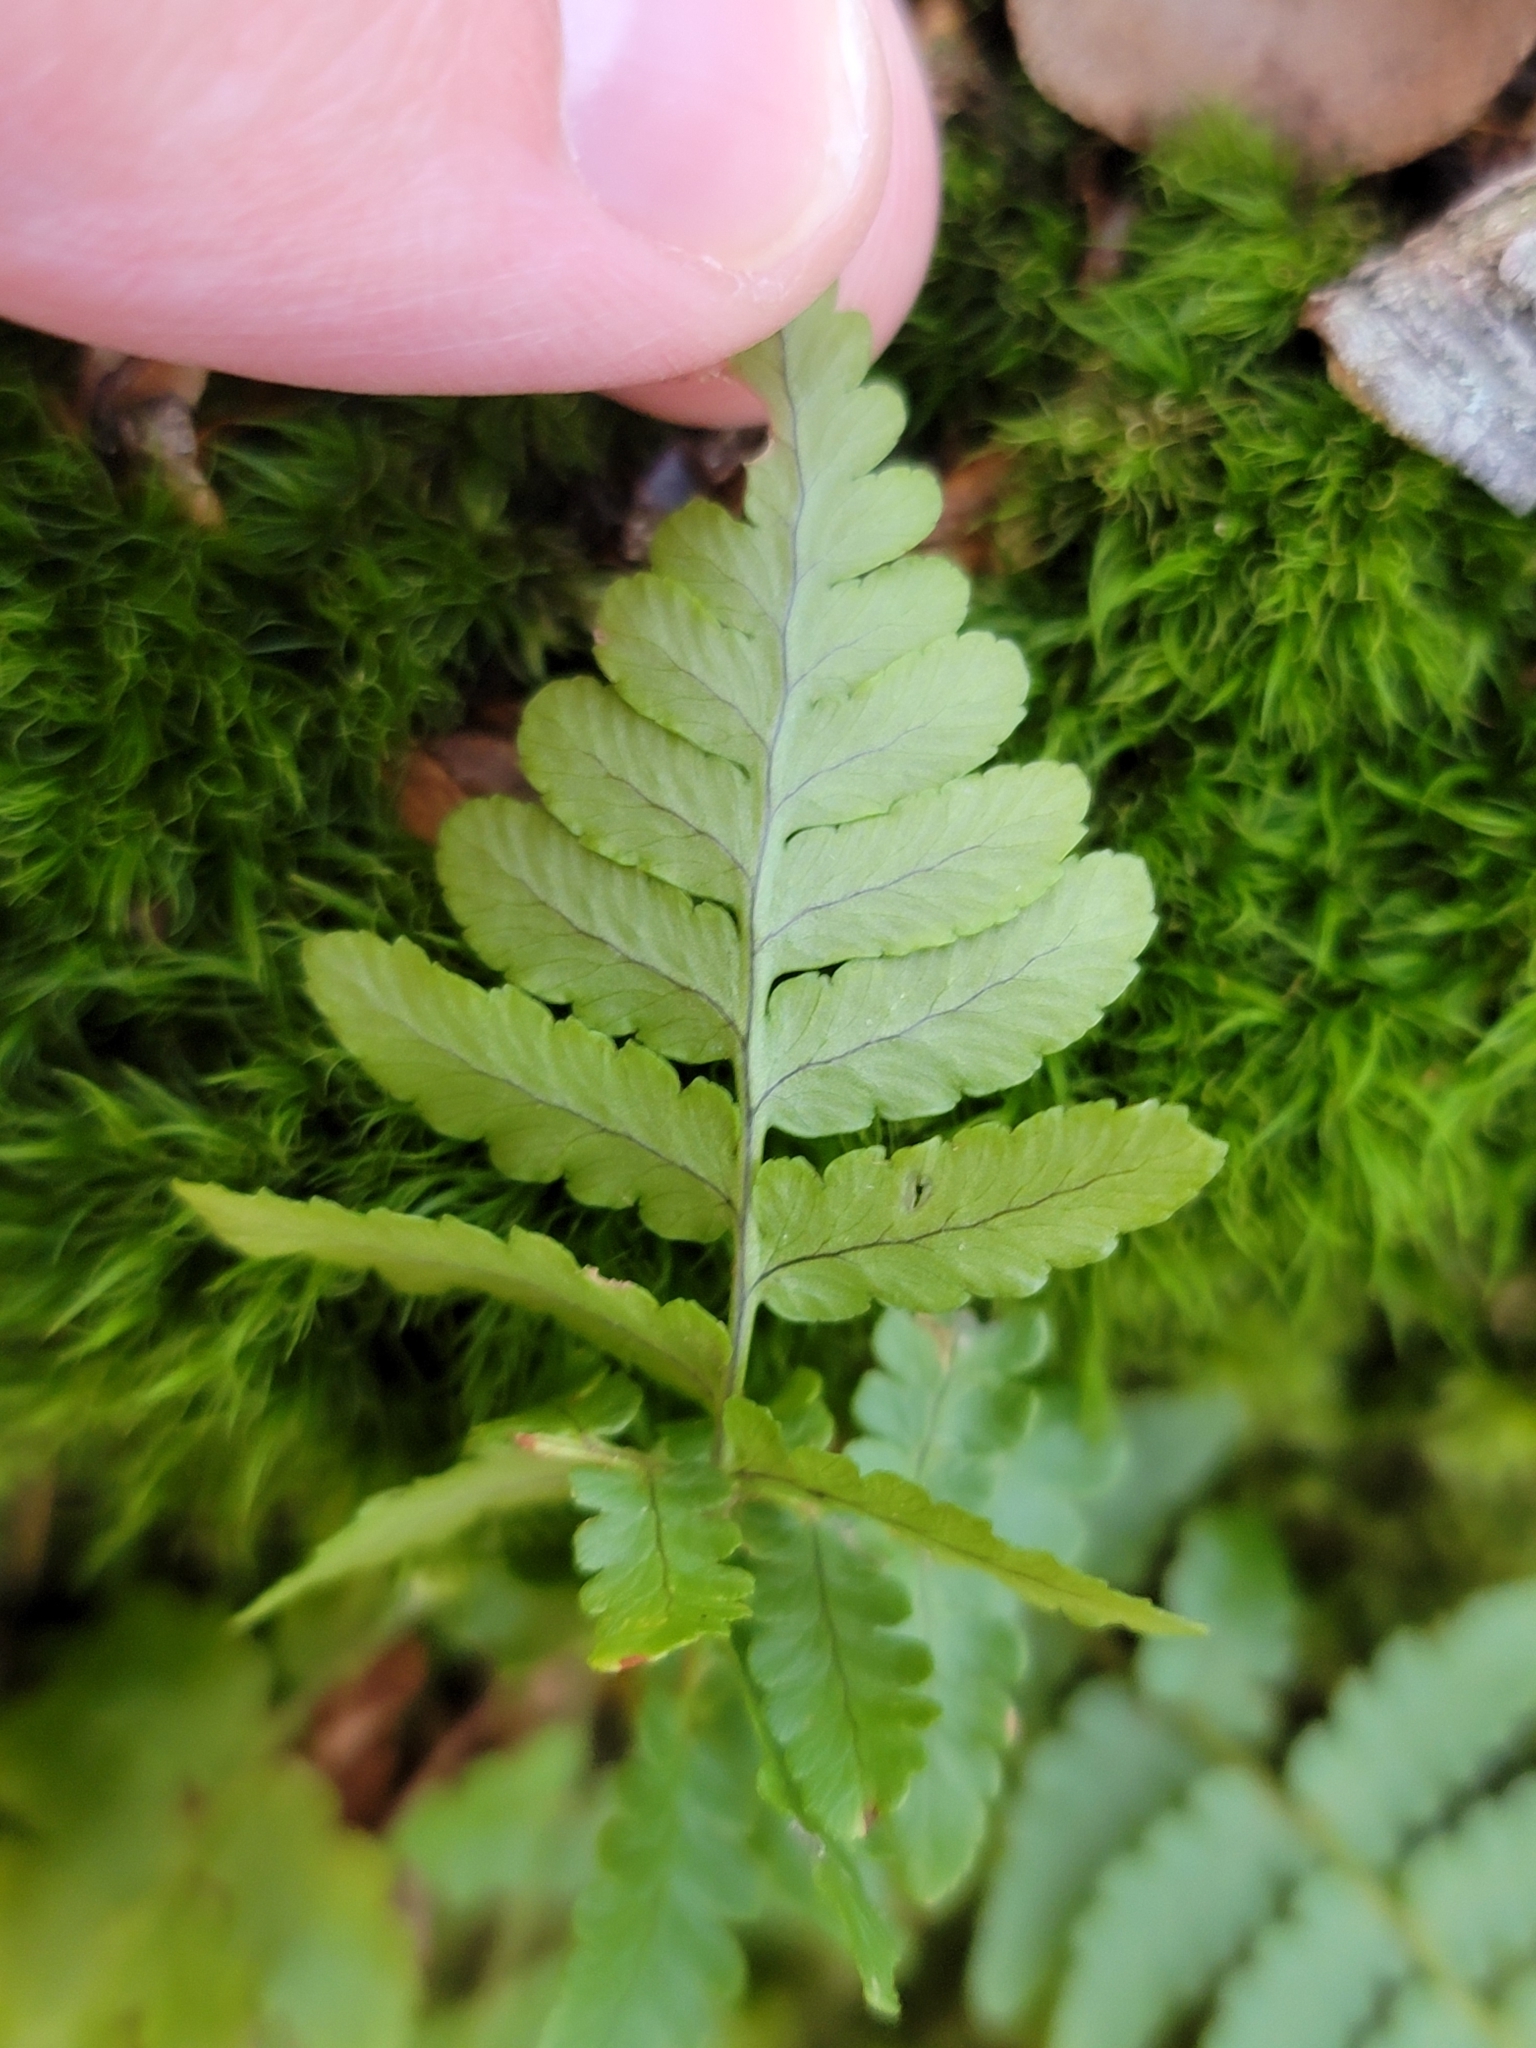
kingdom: Plantae
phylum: Tracheophyta
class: Polypodiopsida
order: Polypodiales
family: Dryopteridaceae
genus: Dryopteris
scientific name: Dryopteris marginalis
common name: Marginal wood fern
